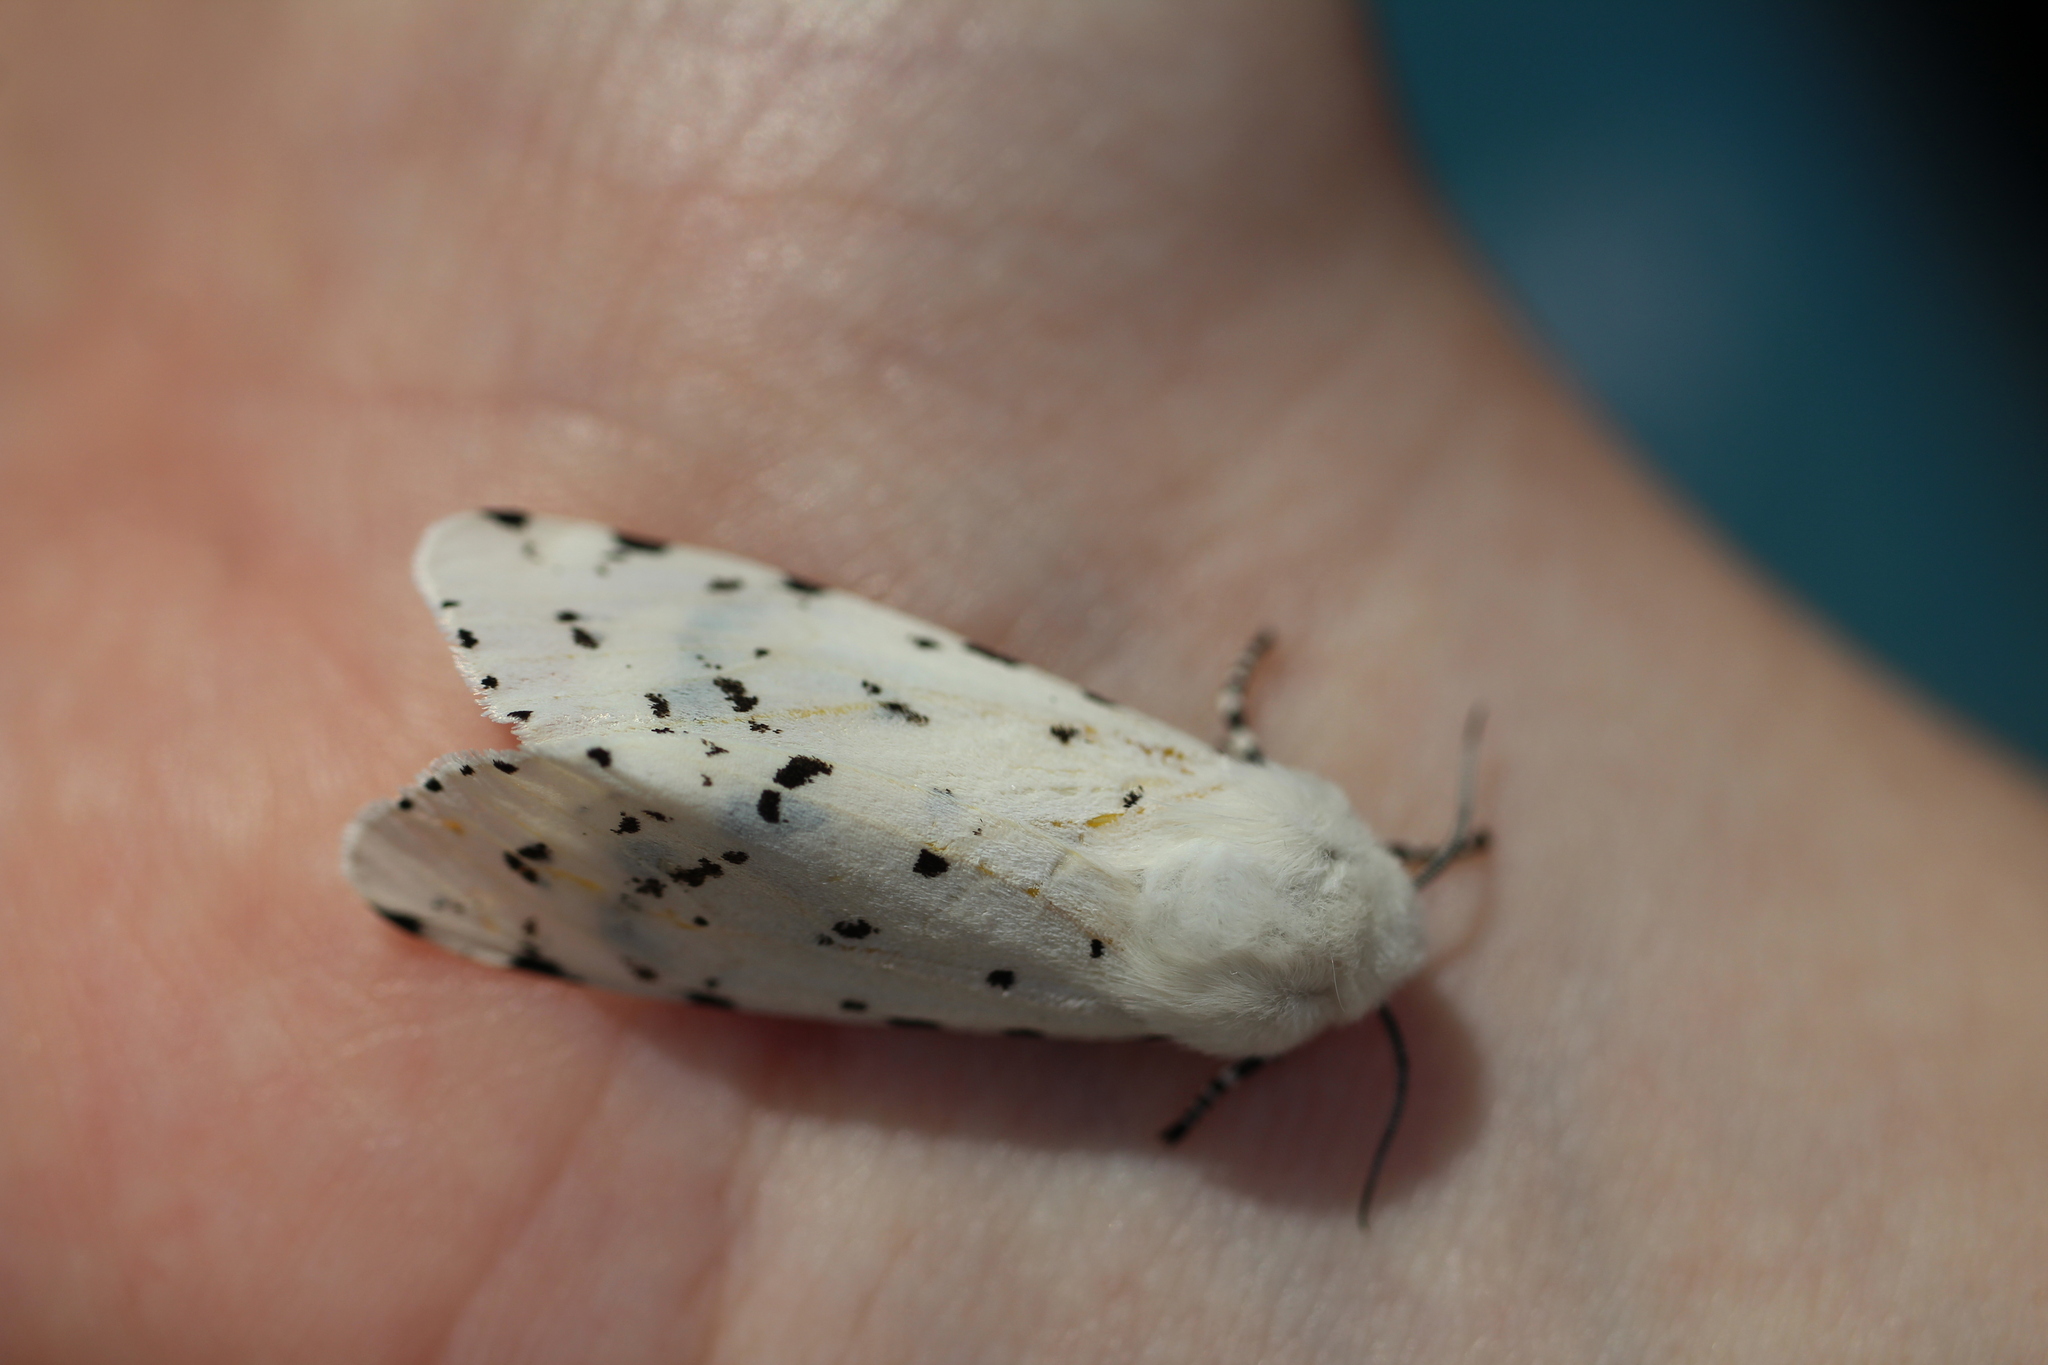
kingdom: Animalia
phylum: Arthropoda
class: Insecta
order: Lepidoptera
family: Erebidae
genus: Estigmene
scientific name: Estigmene acrea
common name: Salt marsh moth
